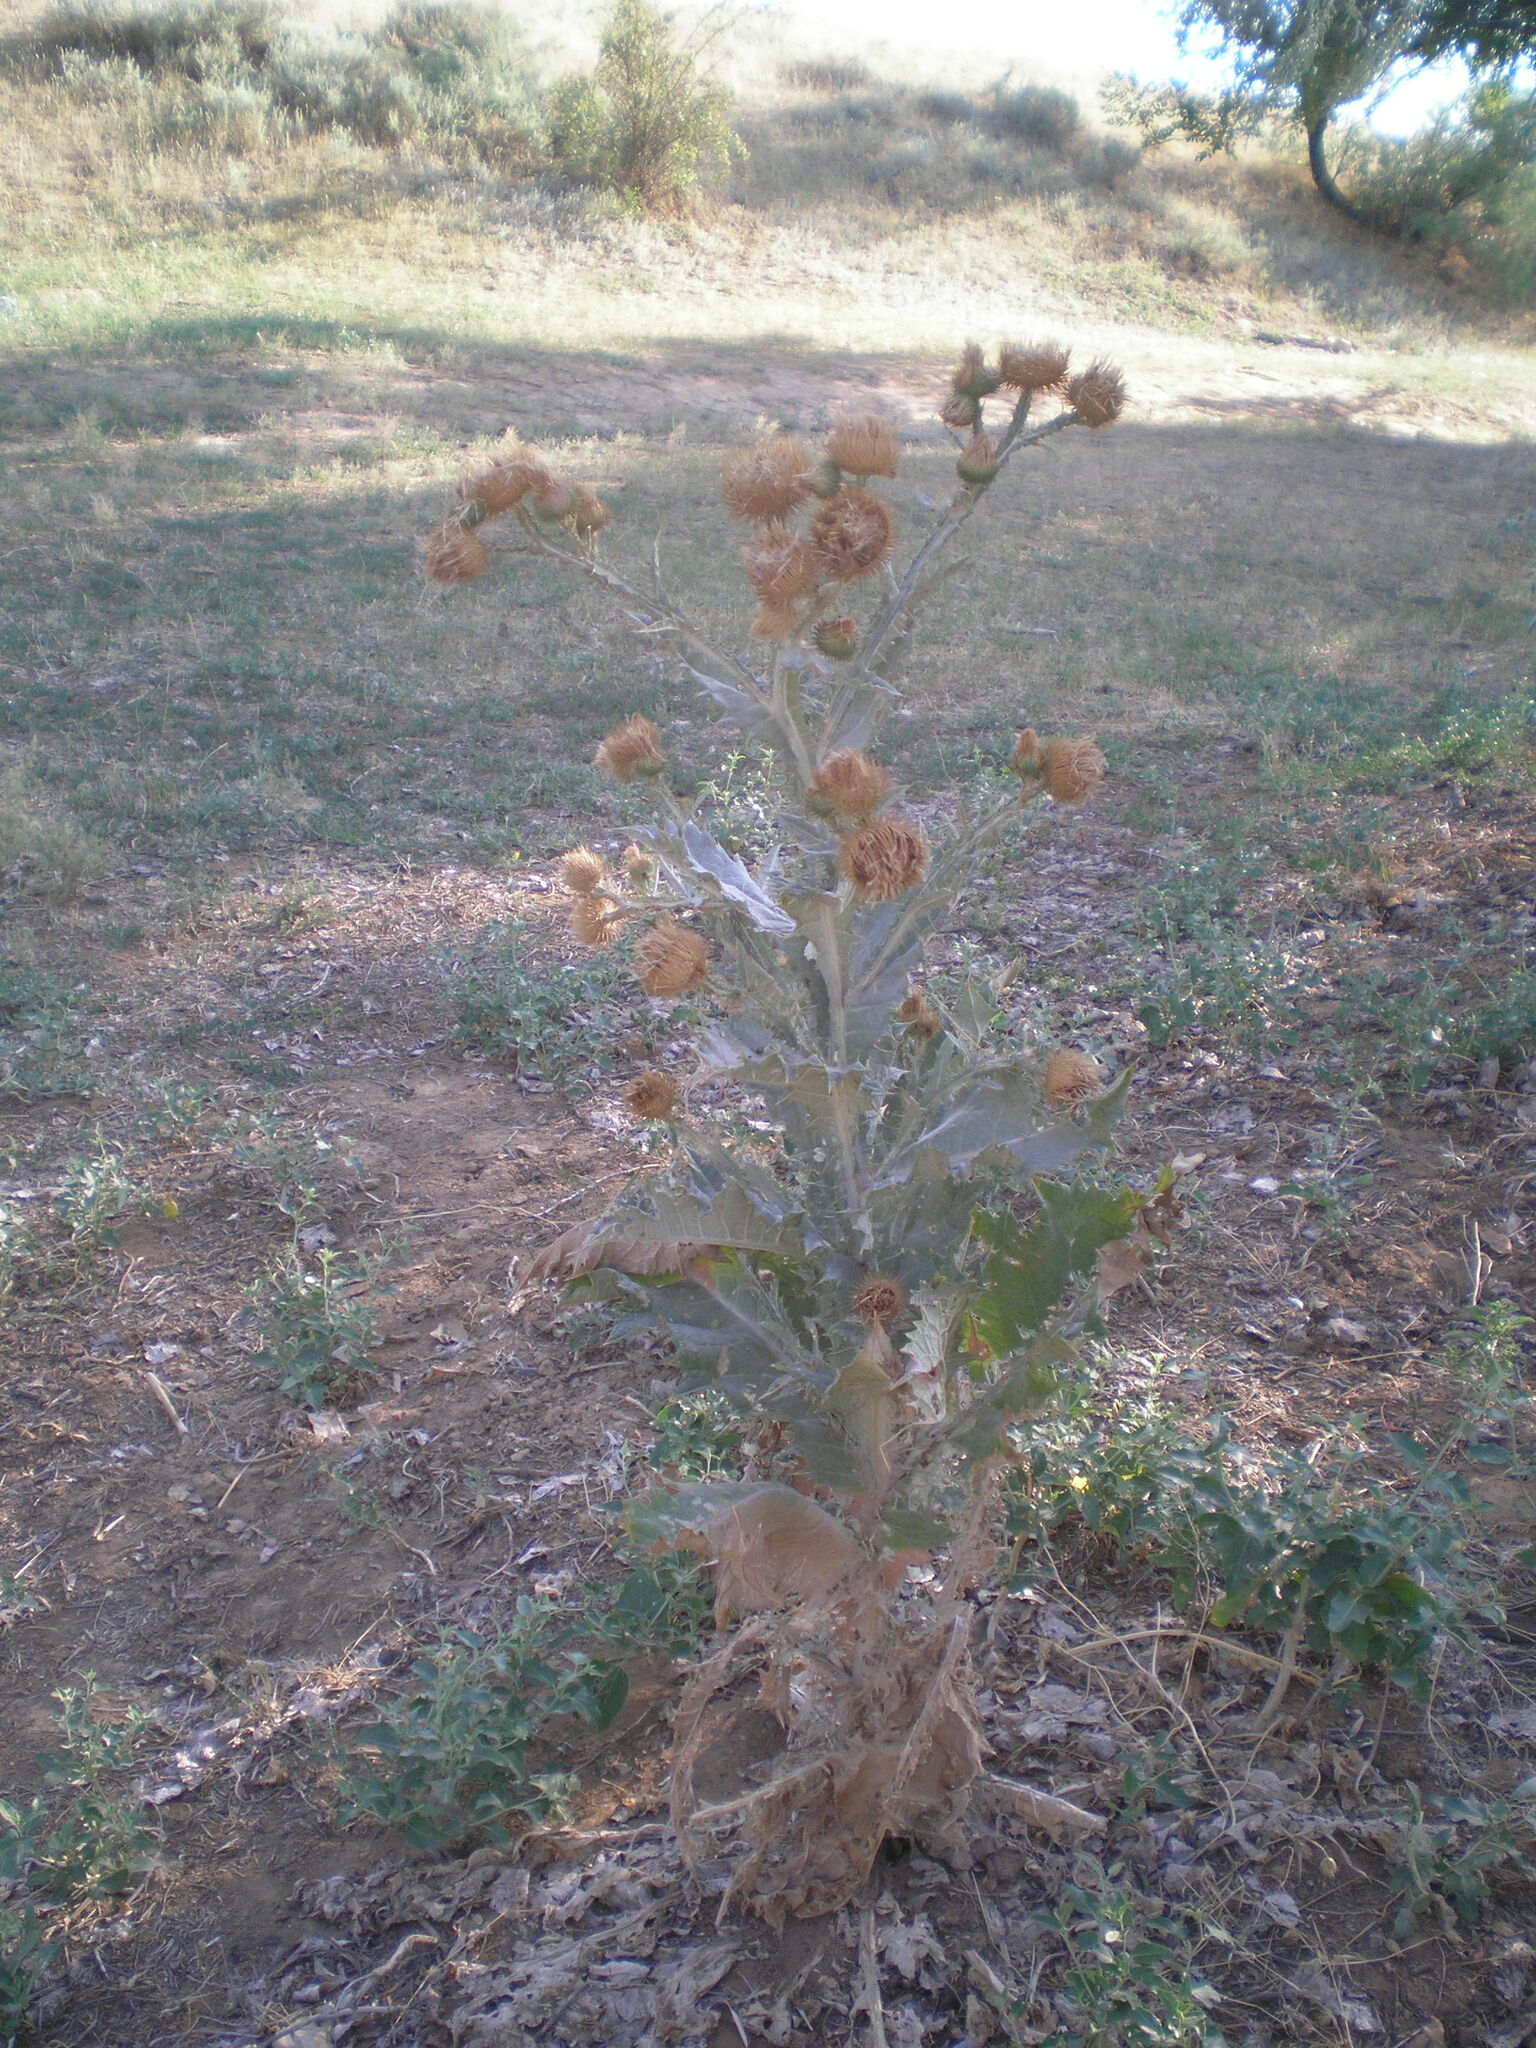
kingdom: Plantae
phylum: Tracheophyta
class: Magnoliopsida
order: Asterales
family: Asteraceae
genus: Onopordum
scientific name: Onopordum acanthium
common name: Scotch thistle
